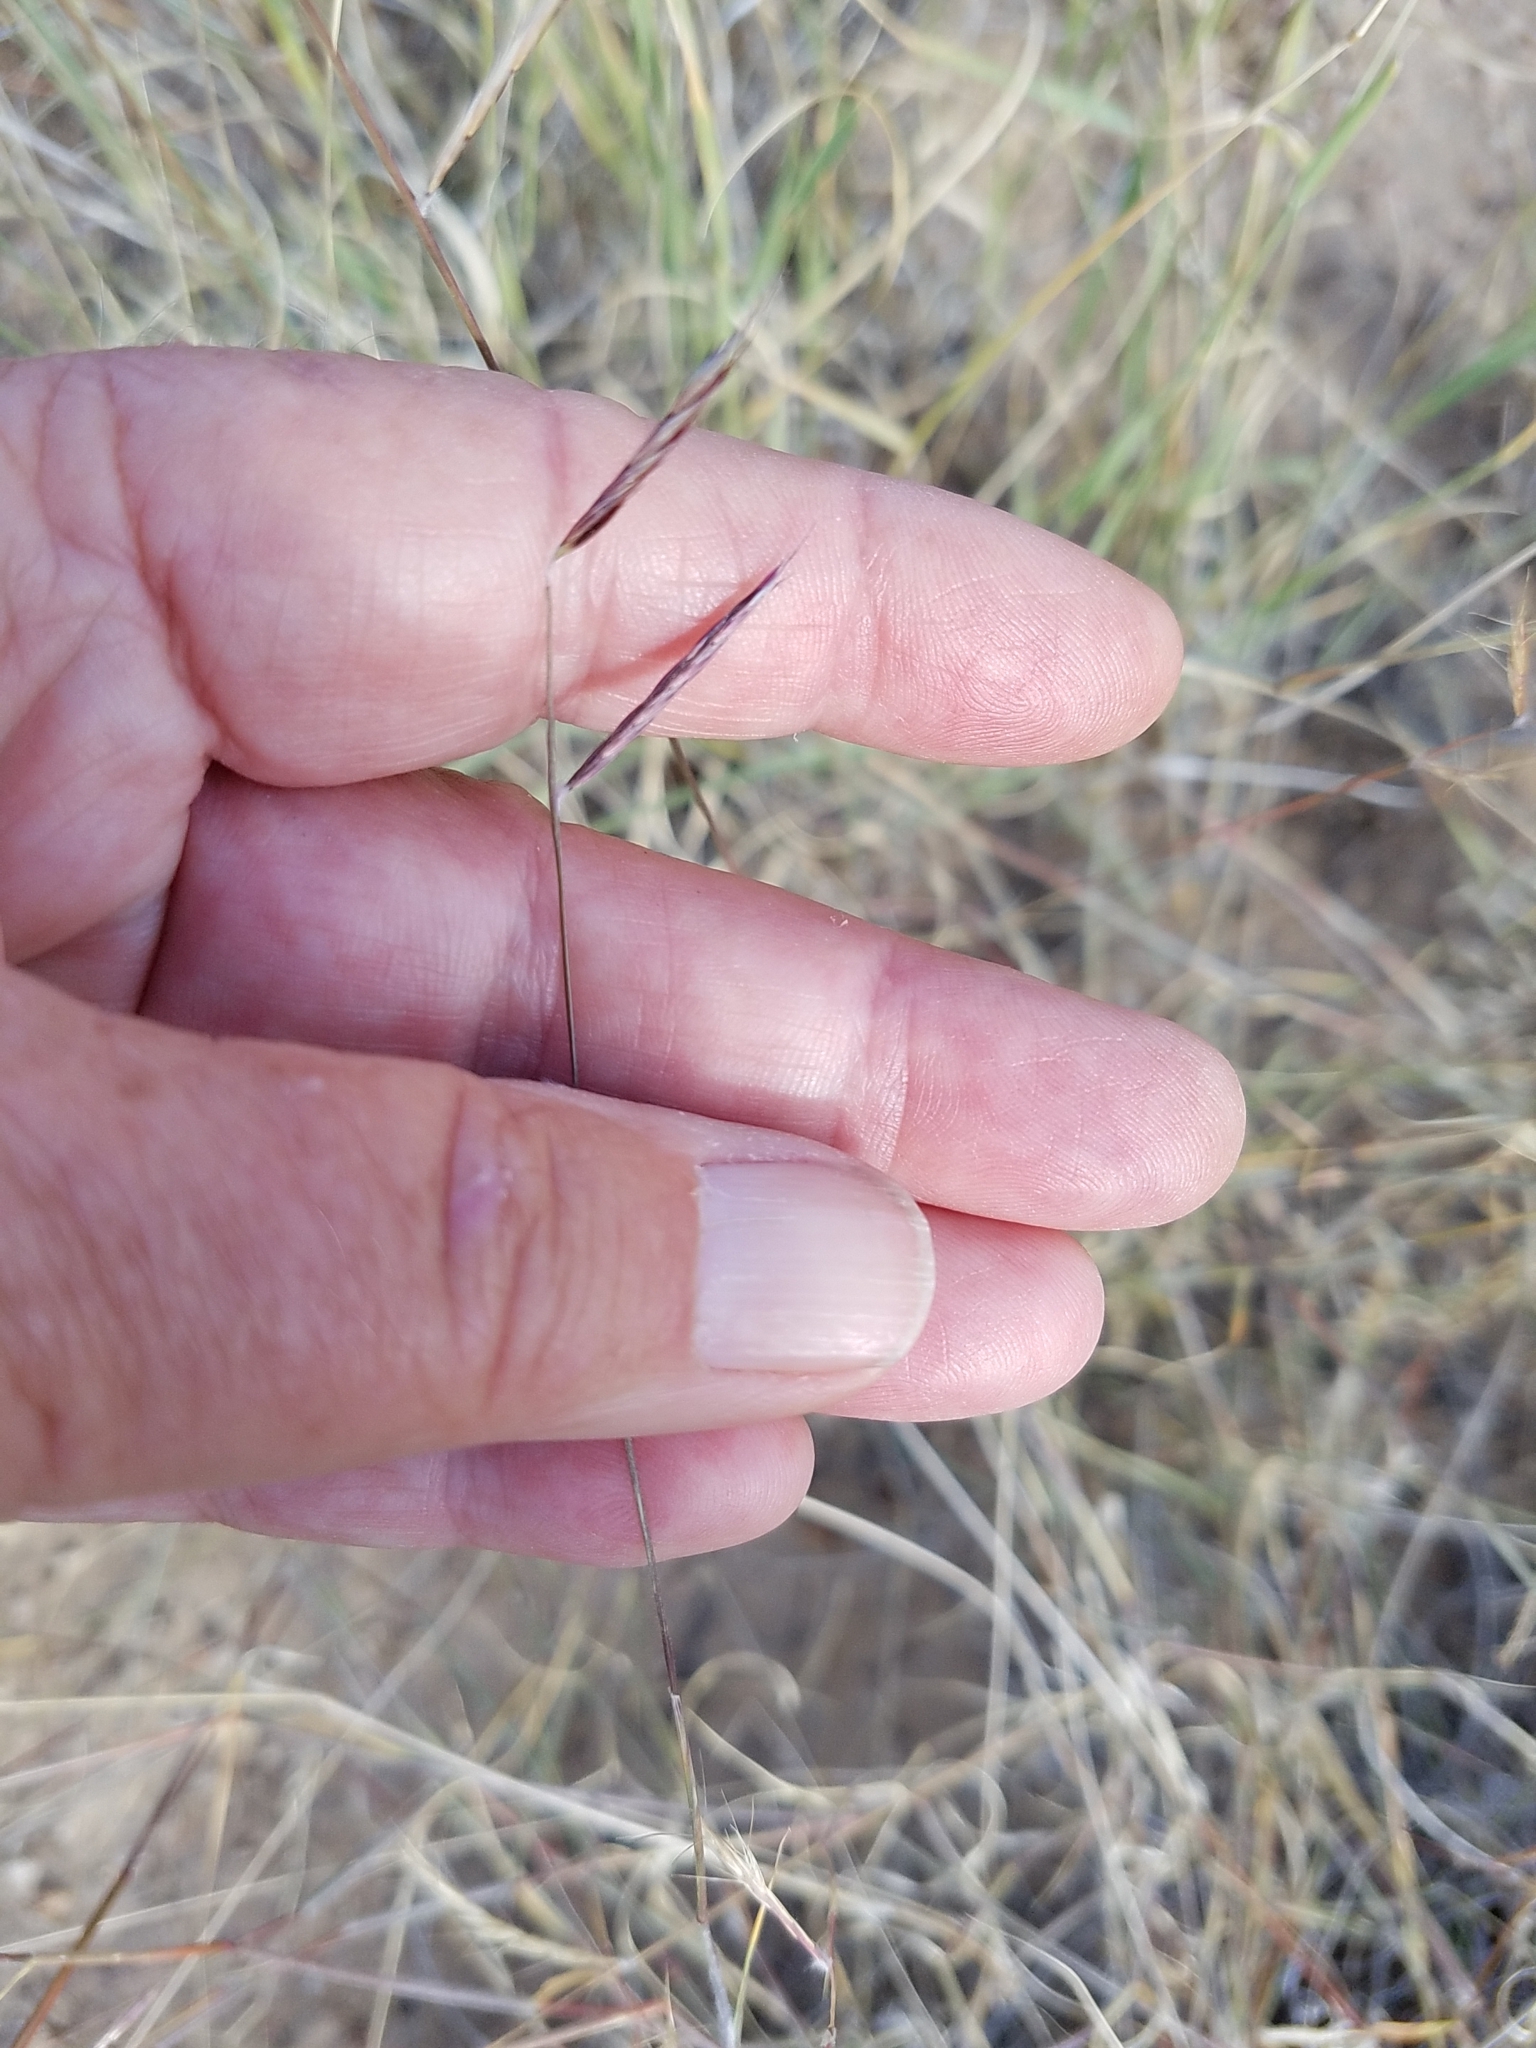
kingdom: Plantae
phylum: Tracheophyta
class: Liliopsida
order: Poales
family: Poaceae
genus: Bouteloua
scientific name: Bouteloua eriopoda
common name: Woolly foot grama
